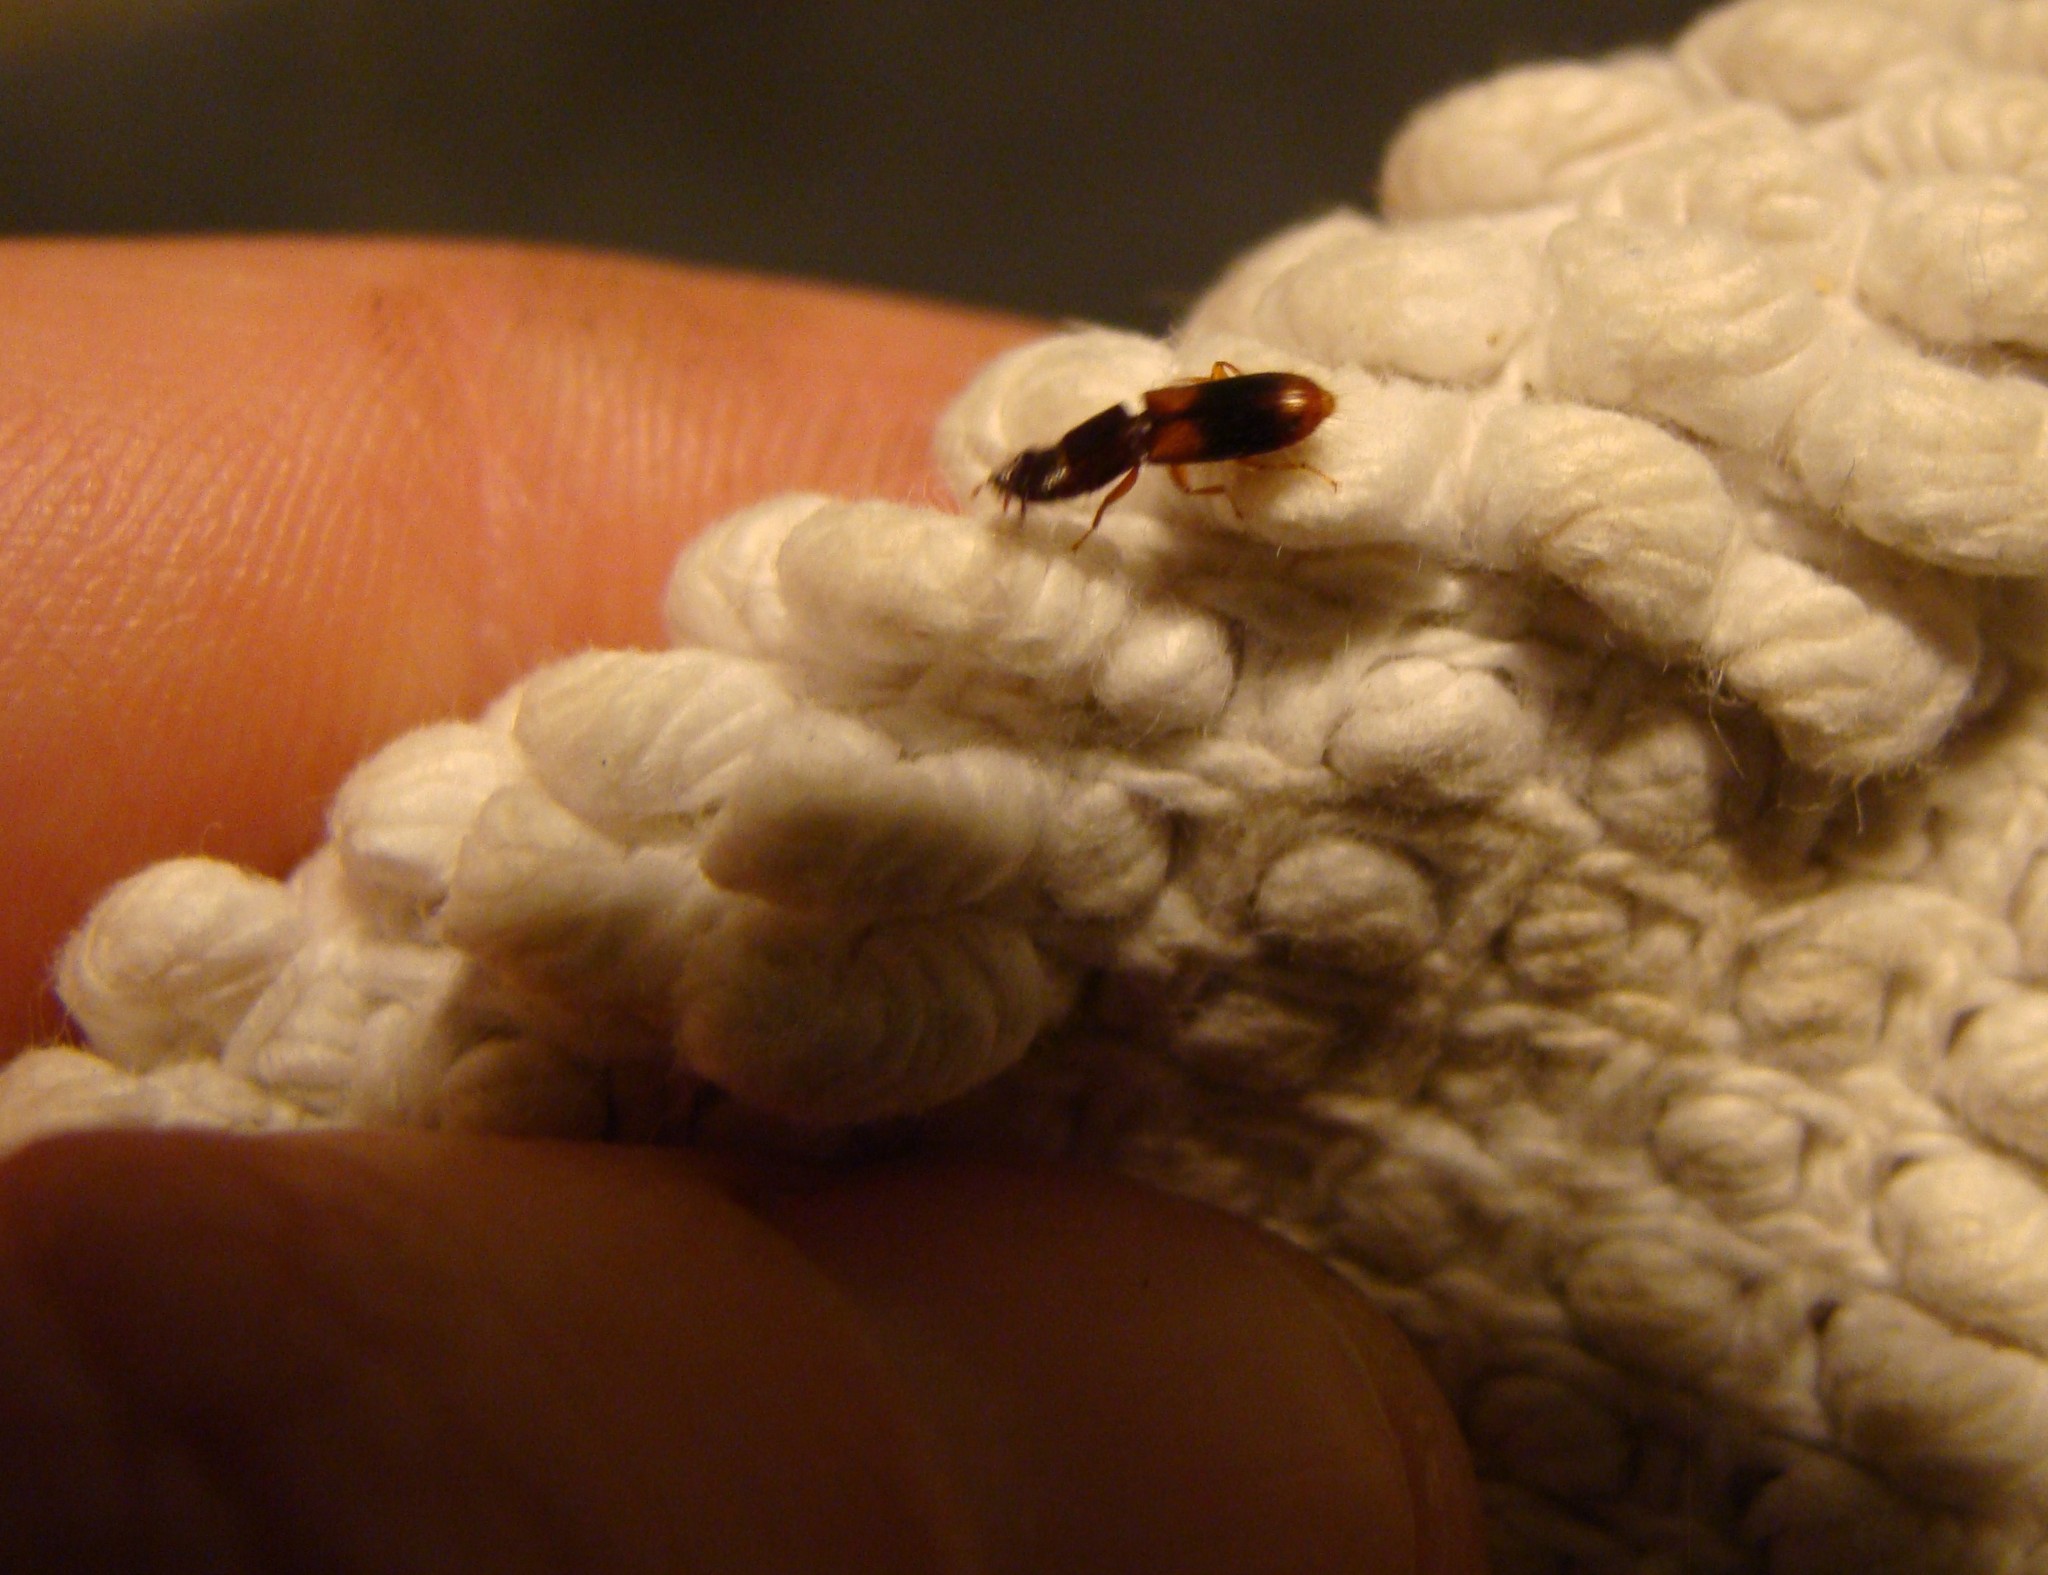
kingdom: Animalia
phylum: Arthropoda
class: Insecta
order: Coleoptera
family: Chaetosomatidae
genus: Chaetosoma
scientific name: Chaetosoma scaritides
